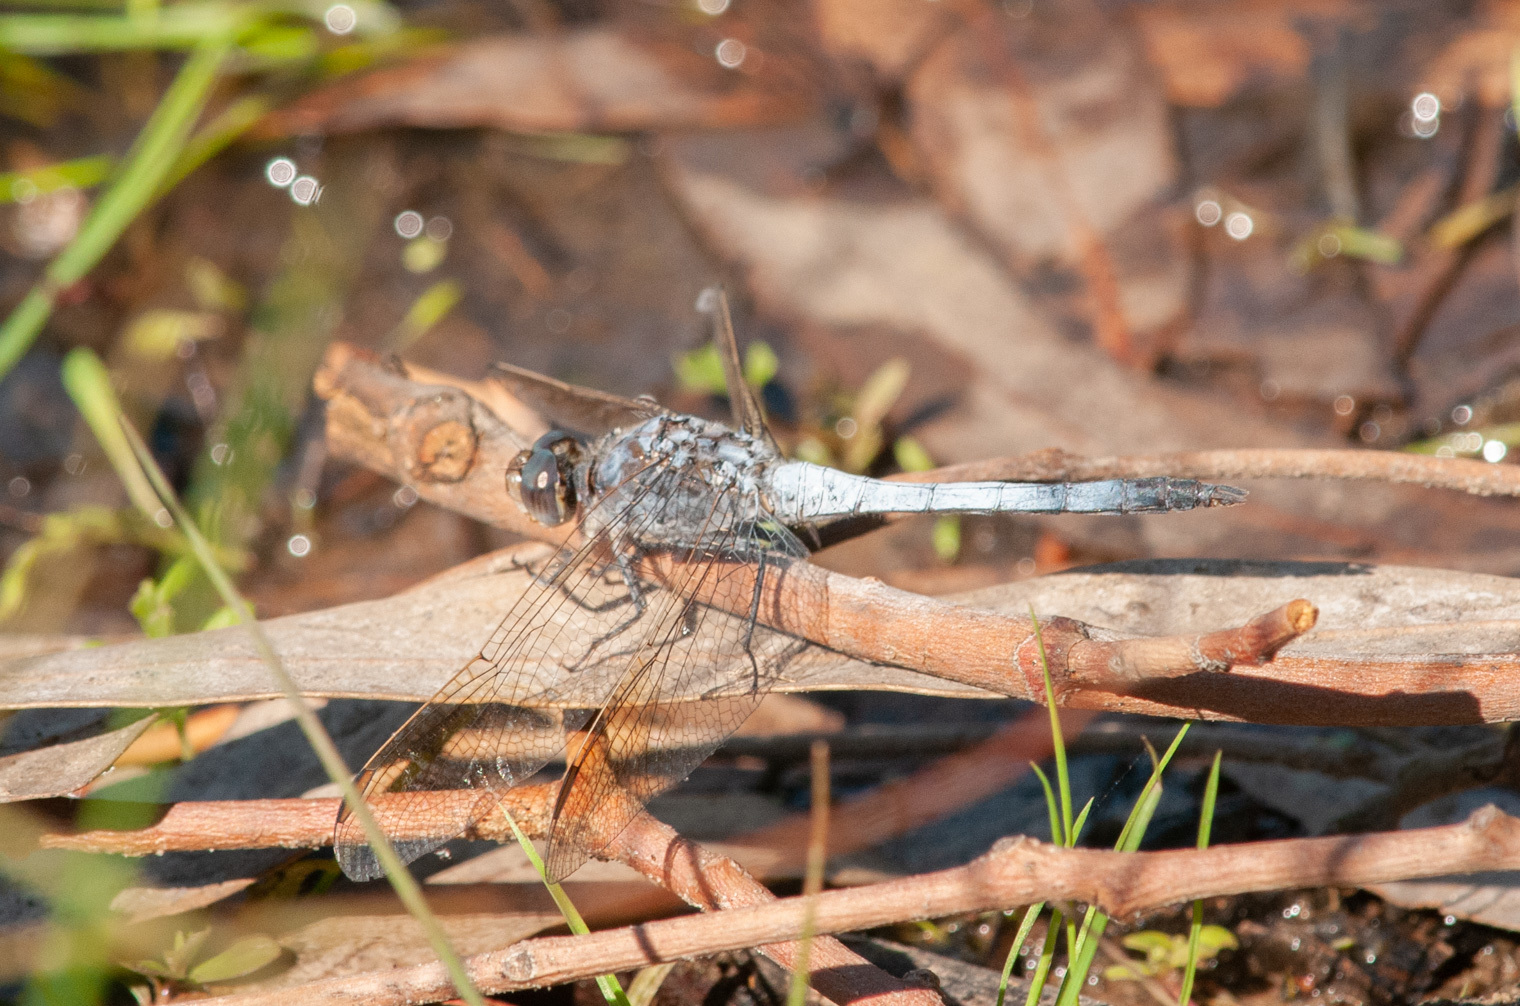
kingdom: Animalia
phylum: Arthropoda
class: Insecta
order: Odonata
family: Libellulidae
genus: Orthetrum
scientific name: Orthetrum caledonicum
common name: Blue skimmer
